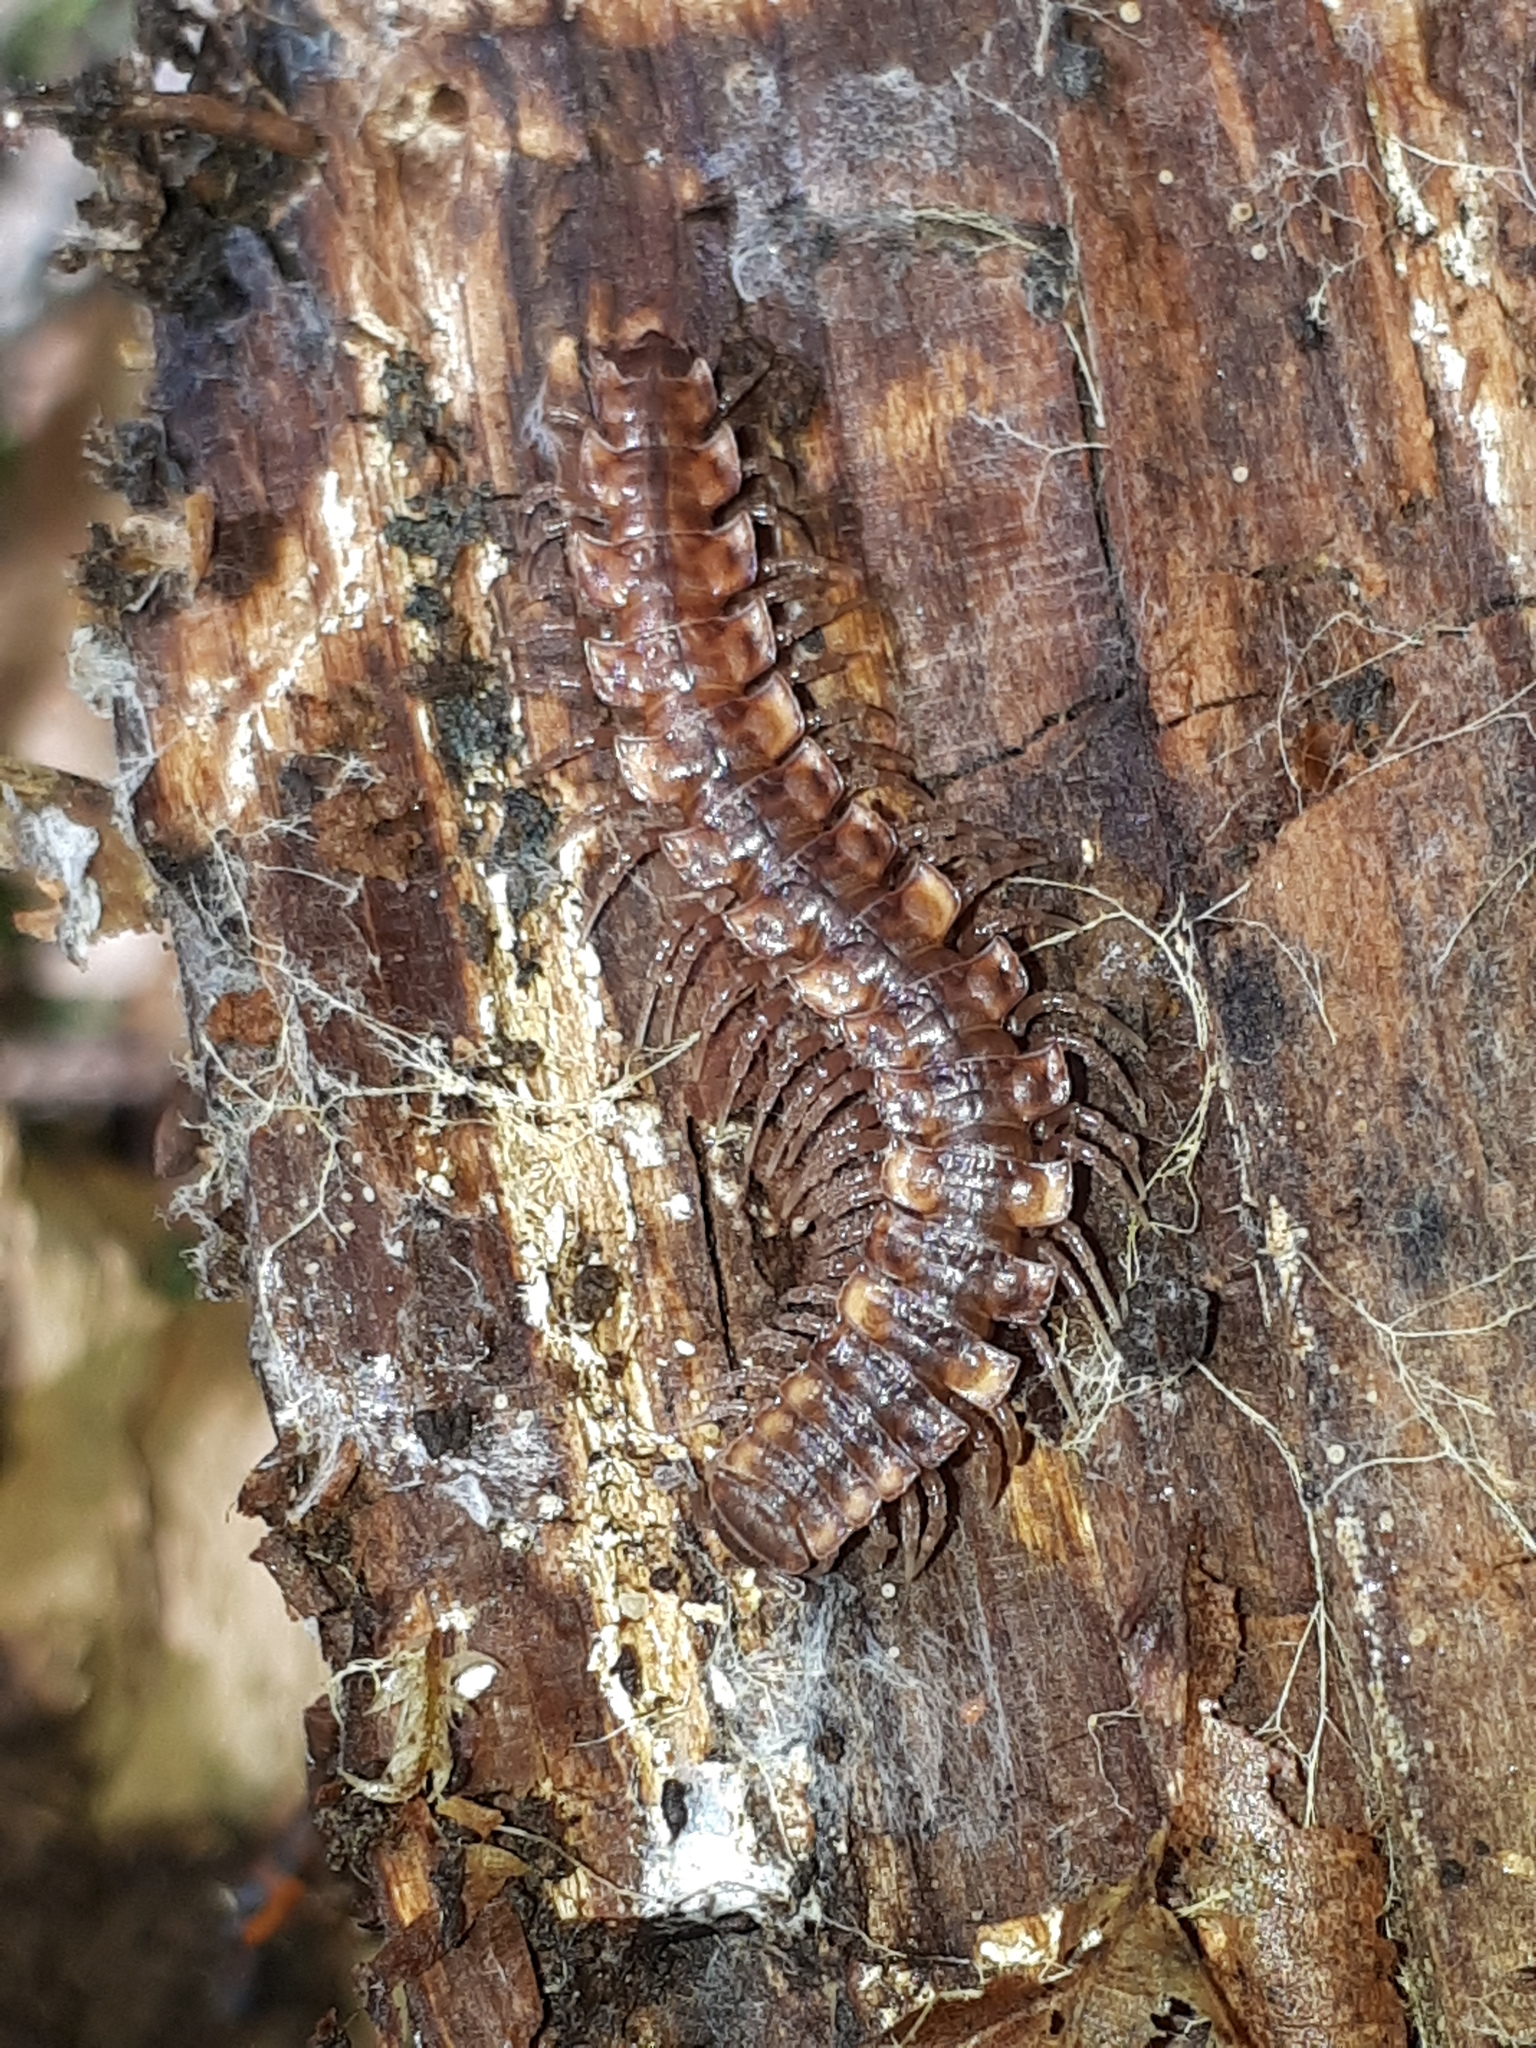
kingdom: Animalia
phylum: Arthropoda
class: Diplopoda
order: Polydesmida
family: Polydesmidae
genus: Polydesmus
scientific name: Polydesmus complanatus
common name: Flat-backed millipede
